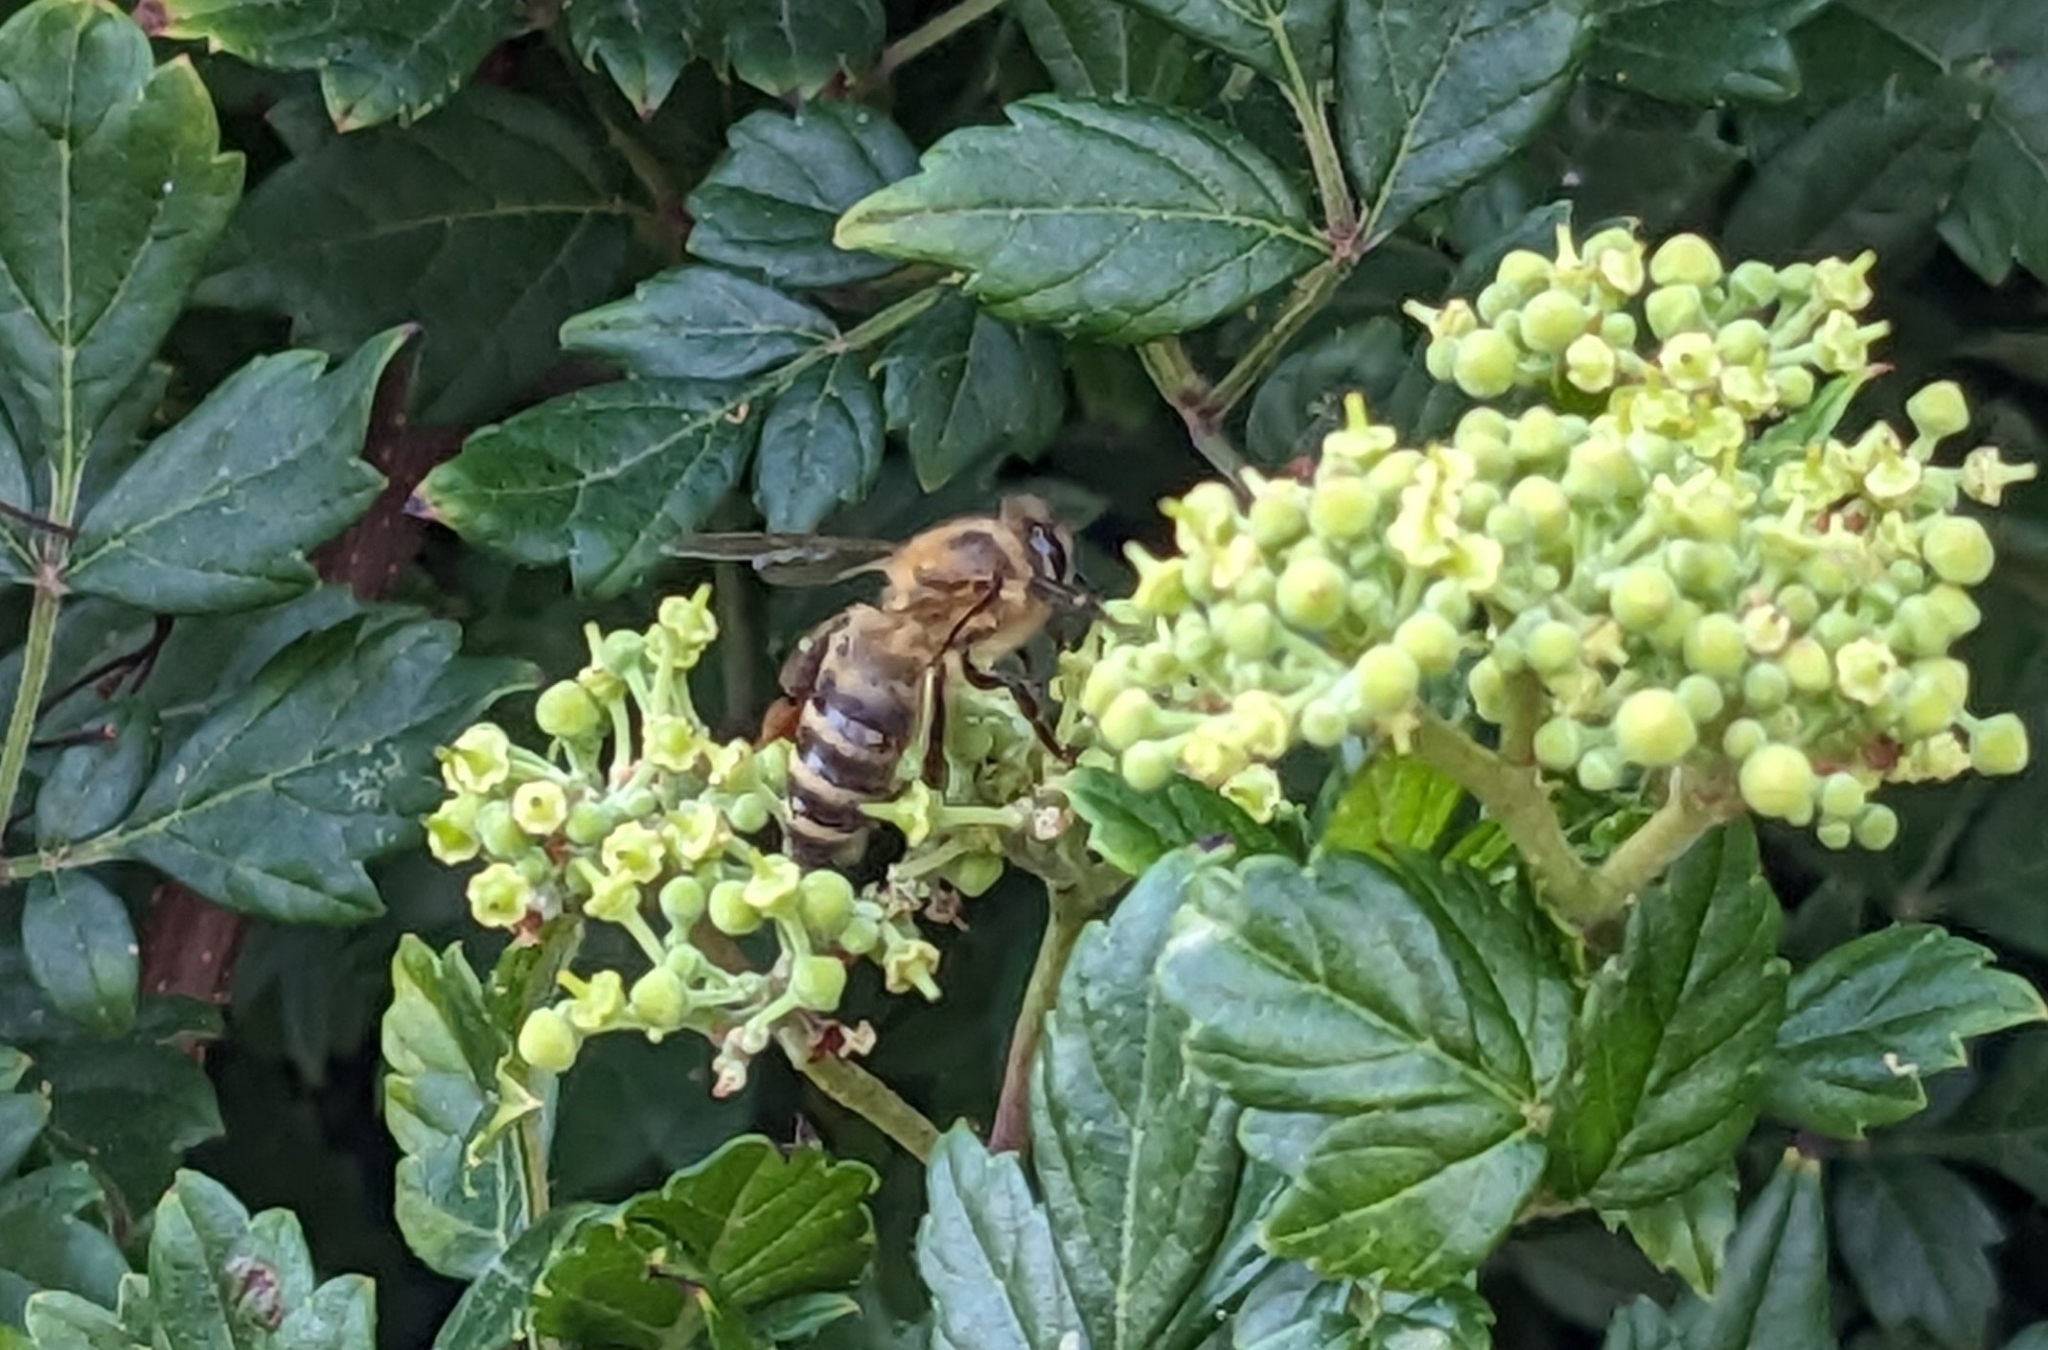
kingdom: Animalia
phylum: Arthropoda
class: Insecta
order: Hymenoptera
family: Apidae
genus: Apis
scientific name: Apis mellifera
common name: Honey bee
